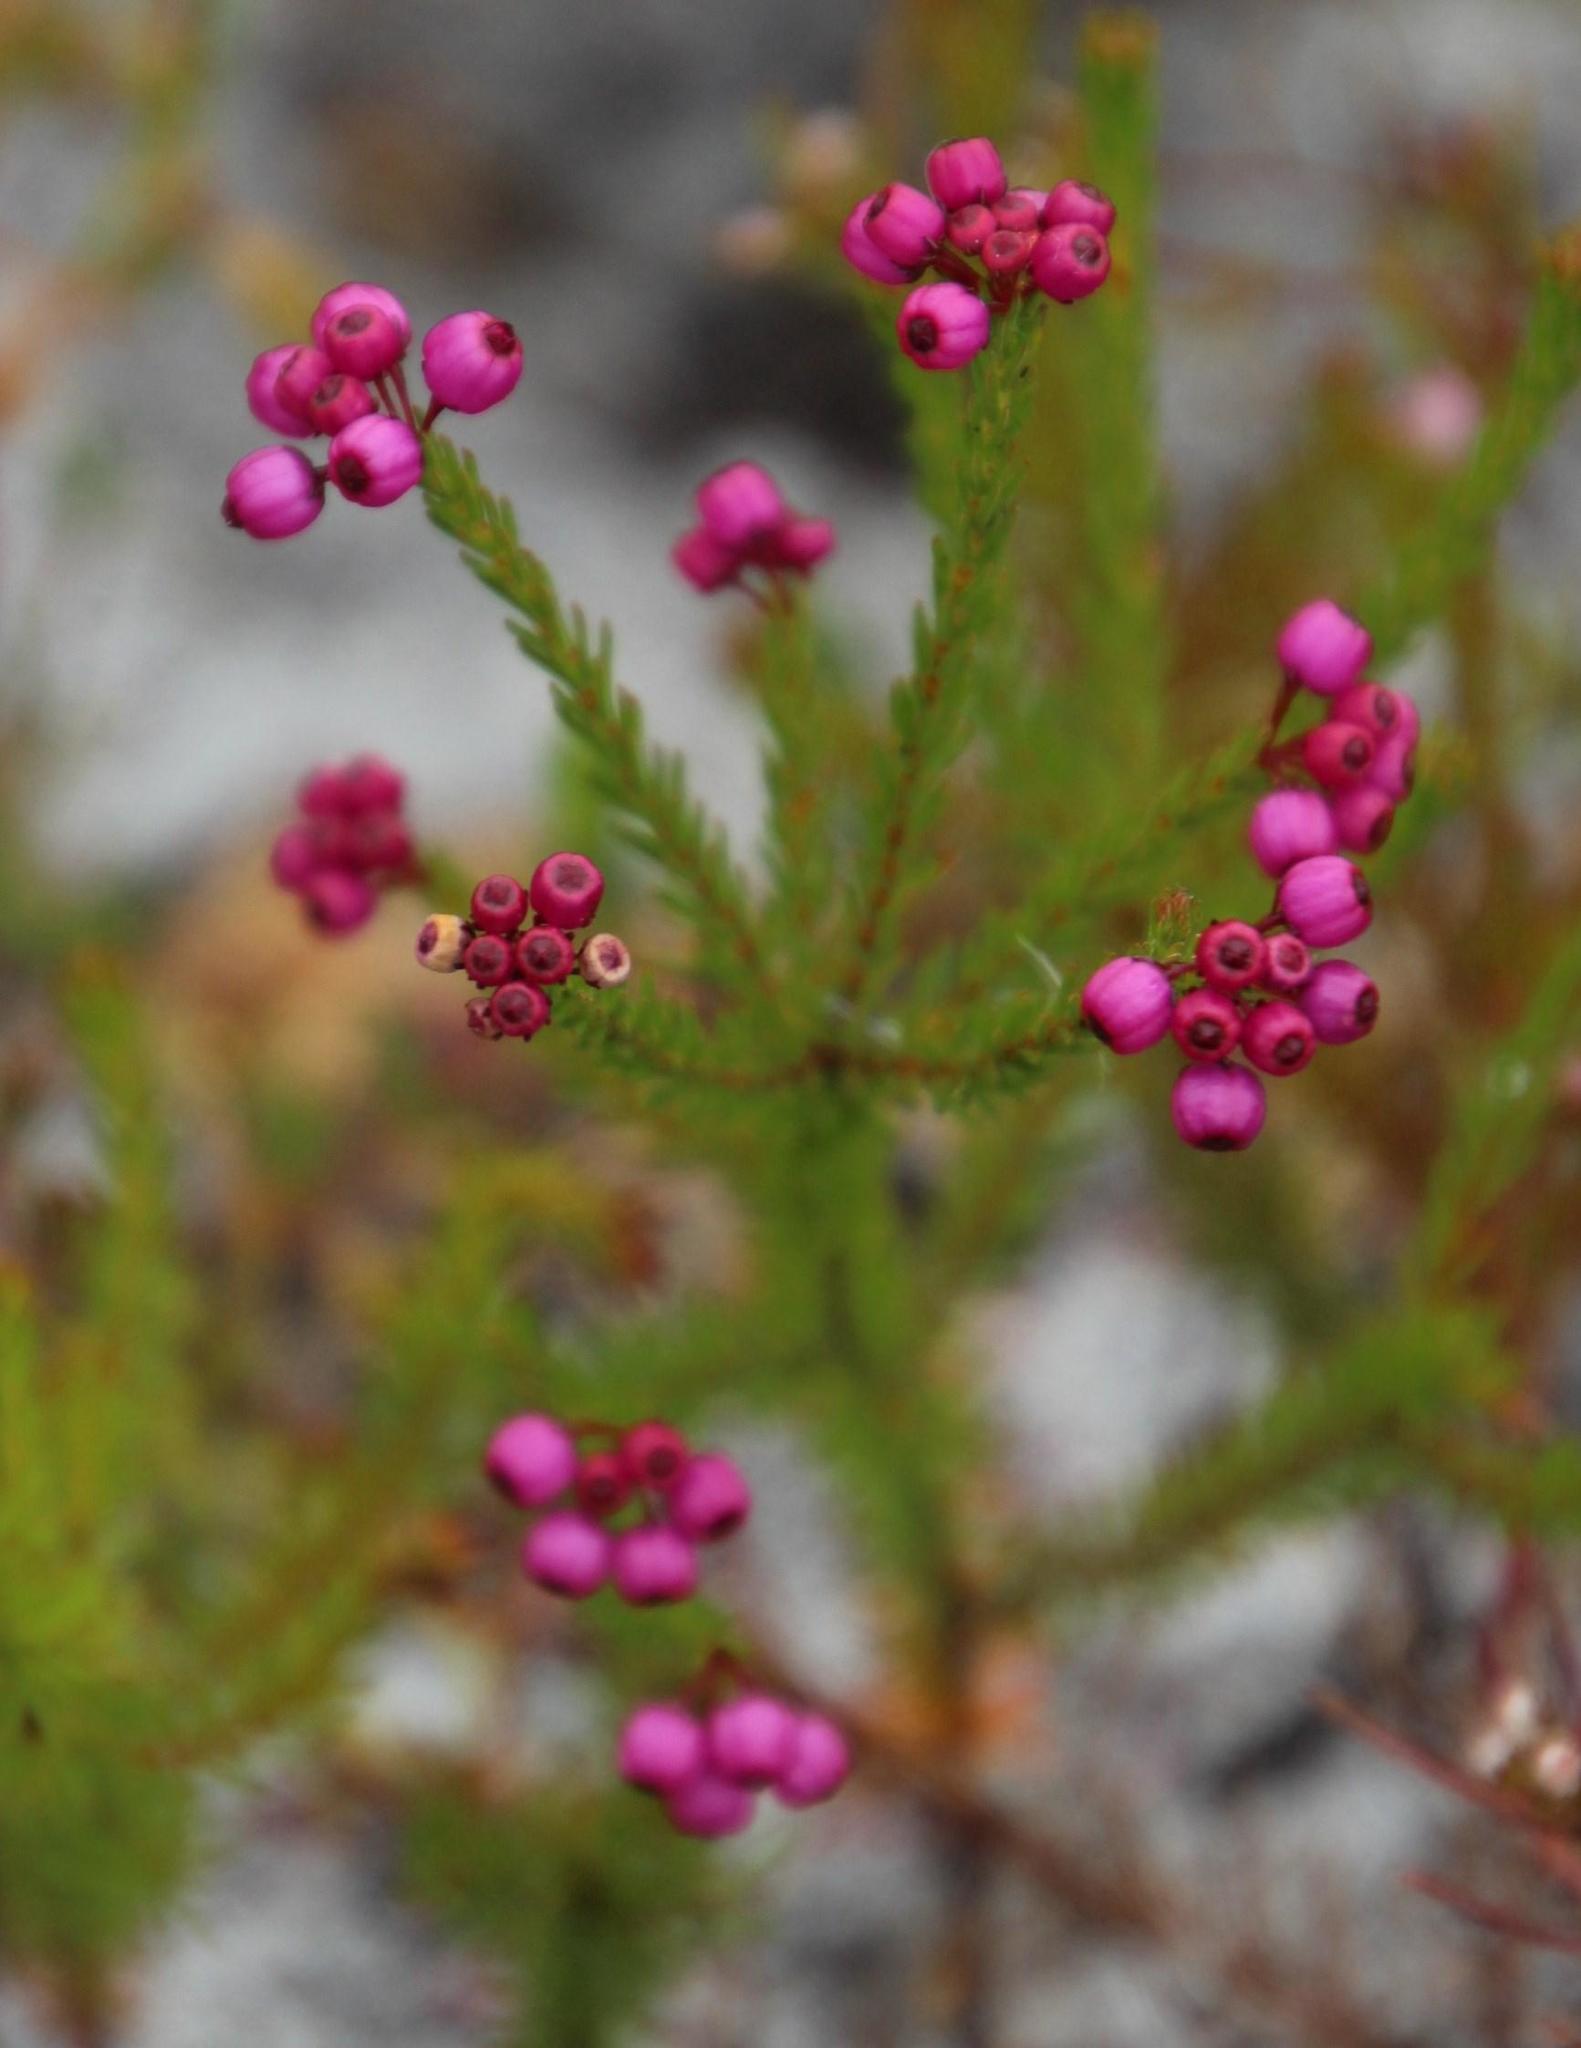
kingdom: Plantae
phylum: Tracheophyta
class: Magnoliopsida
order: Ericales
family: Ericaceae
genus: Erica
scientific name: Erica multumbellifera
